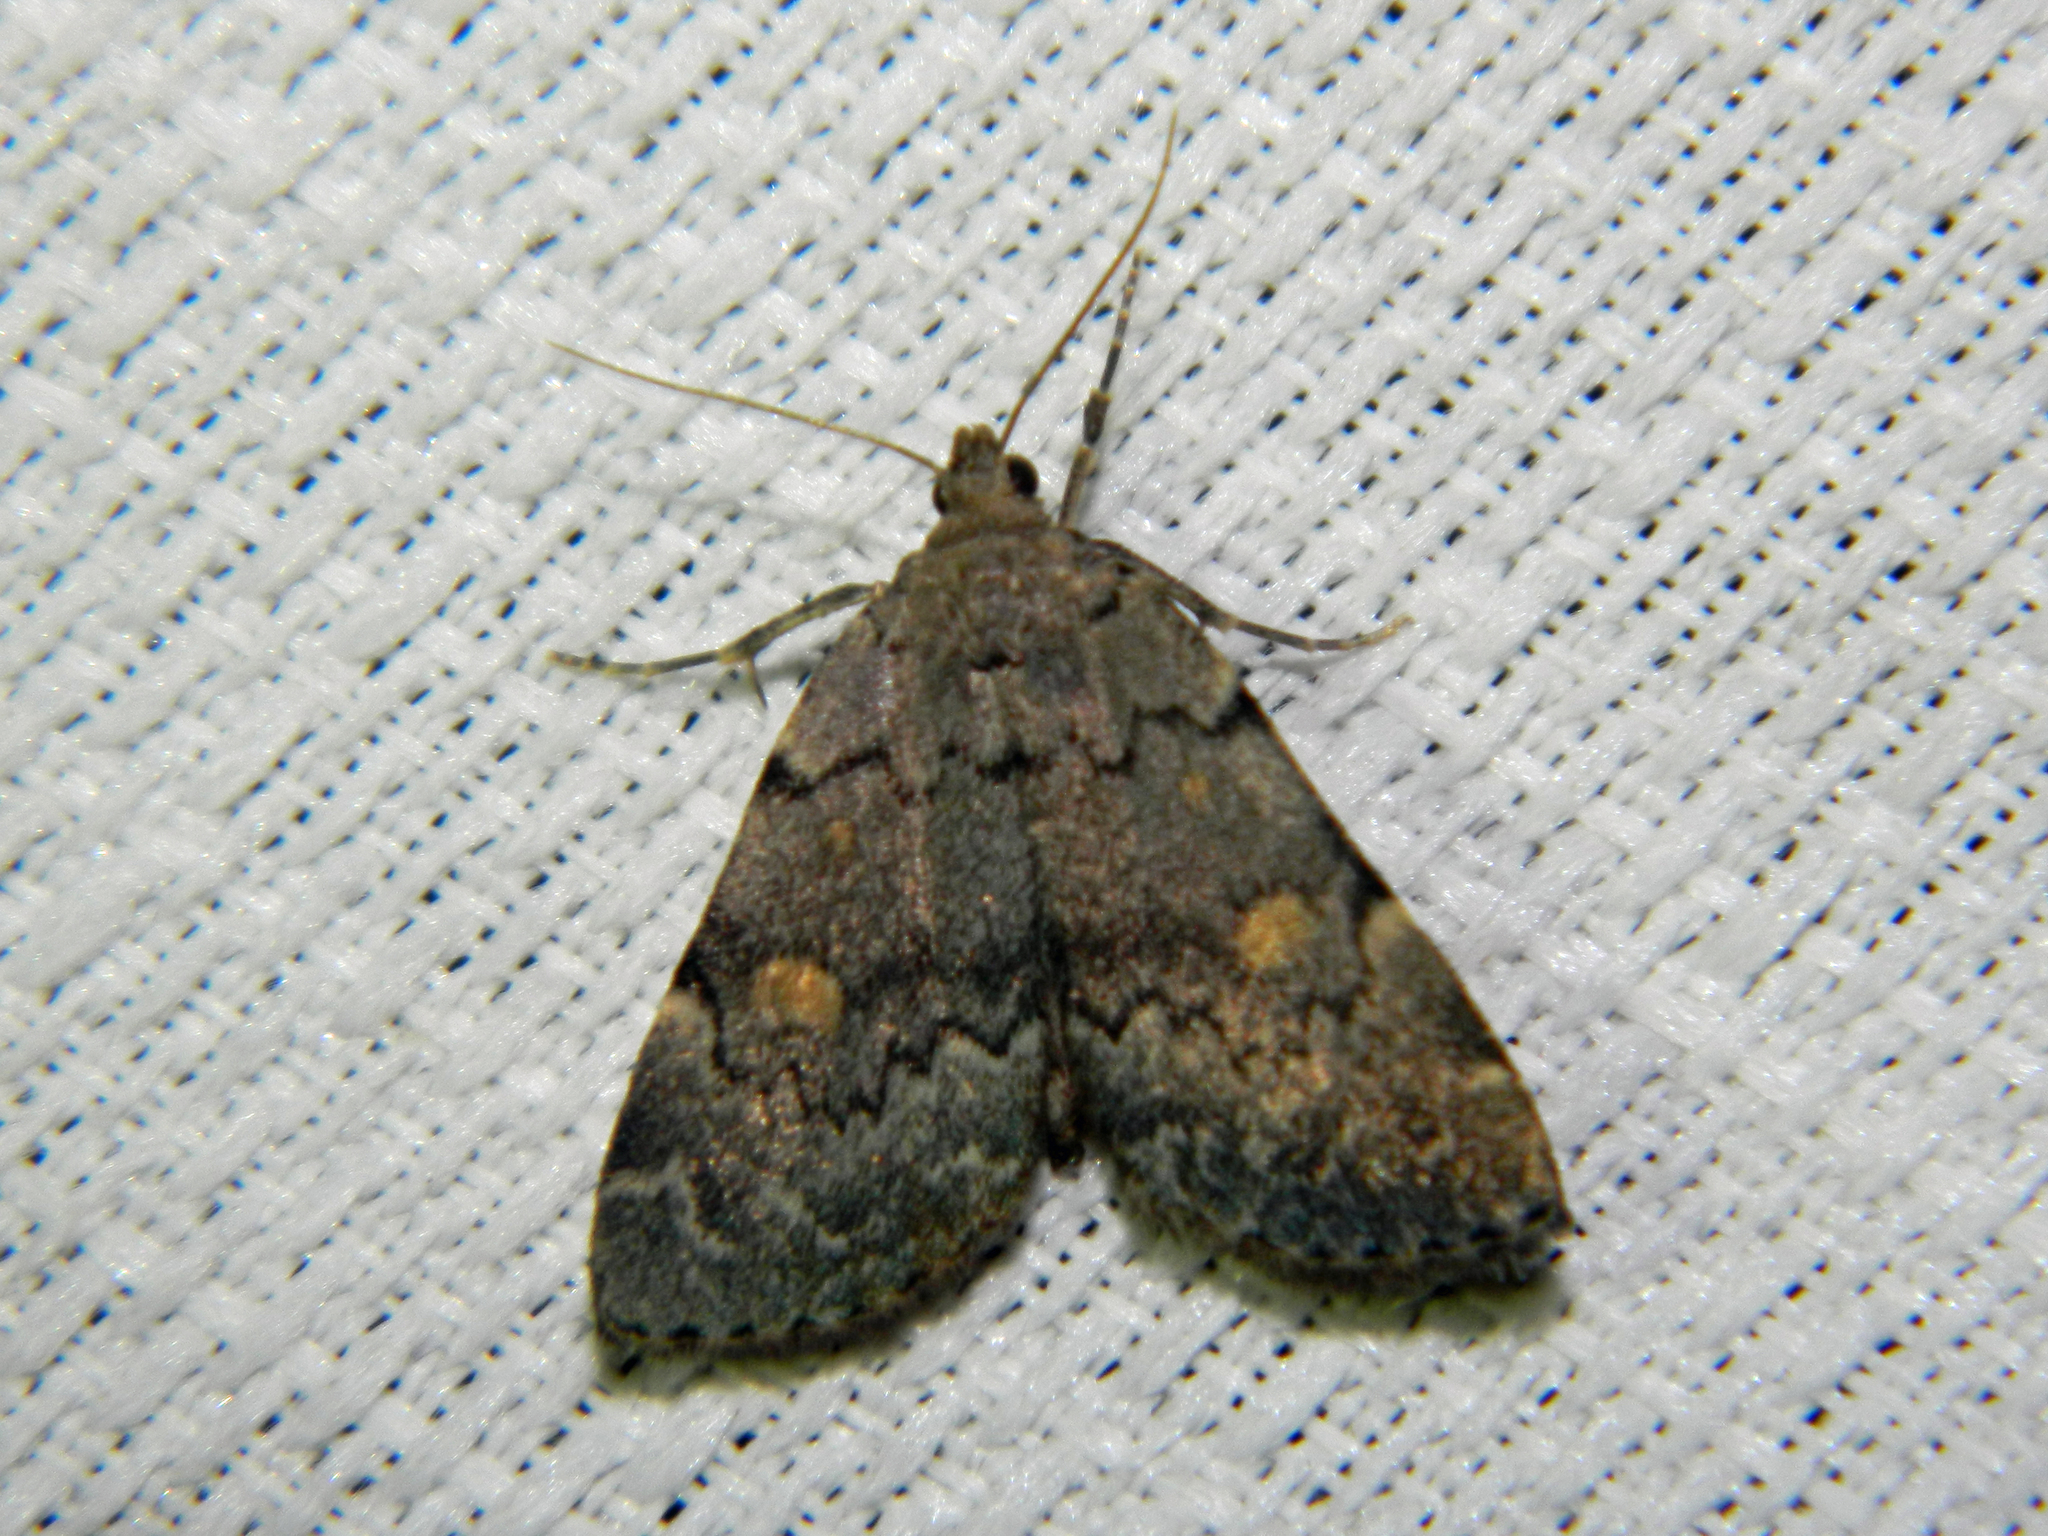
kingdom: Animalia
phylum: Arthropoda
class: Insecta
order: Lepidoptera
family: Erebidae
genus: Idia
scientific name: Idia aemula
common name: Common idia moth
